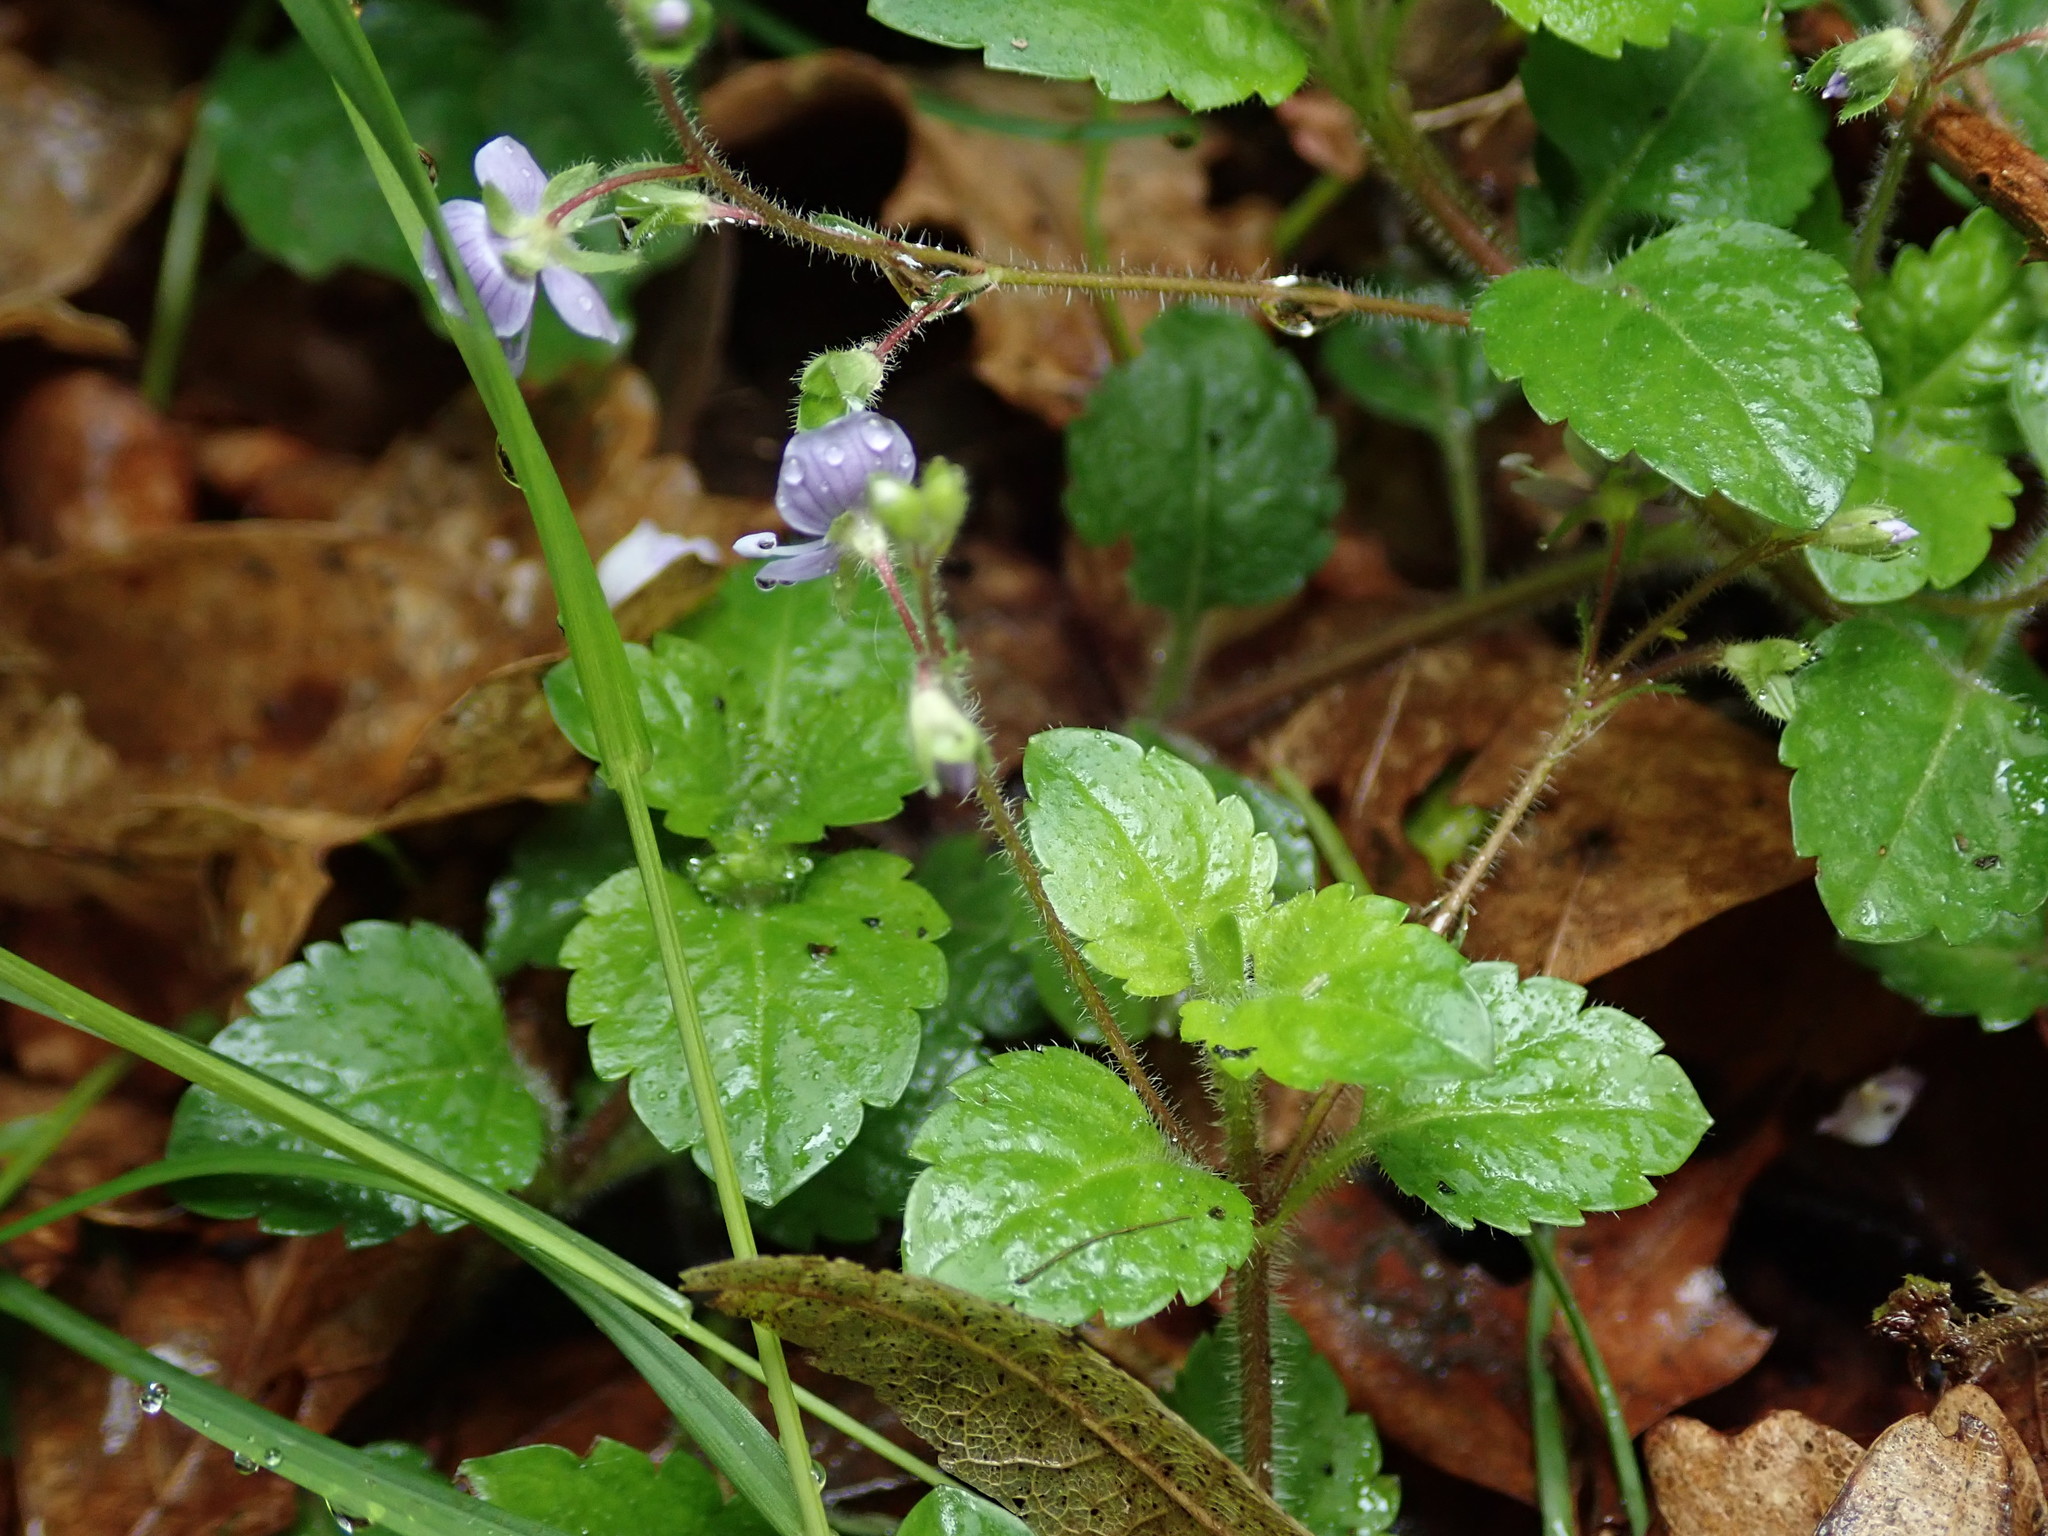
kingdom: Plantae
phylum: Tracheophyta
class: Magnoliopsida
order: Lamiales
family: Plantaginaceae
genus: Veronica
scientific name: Veronica montana
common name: Wood speedwell
